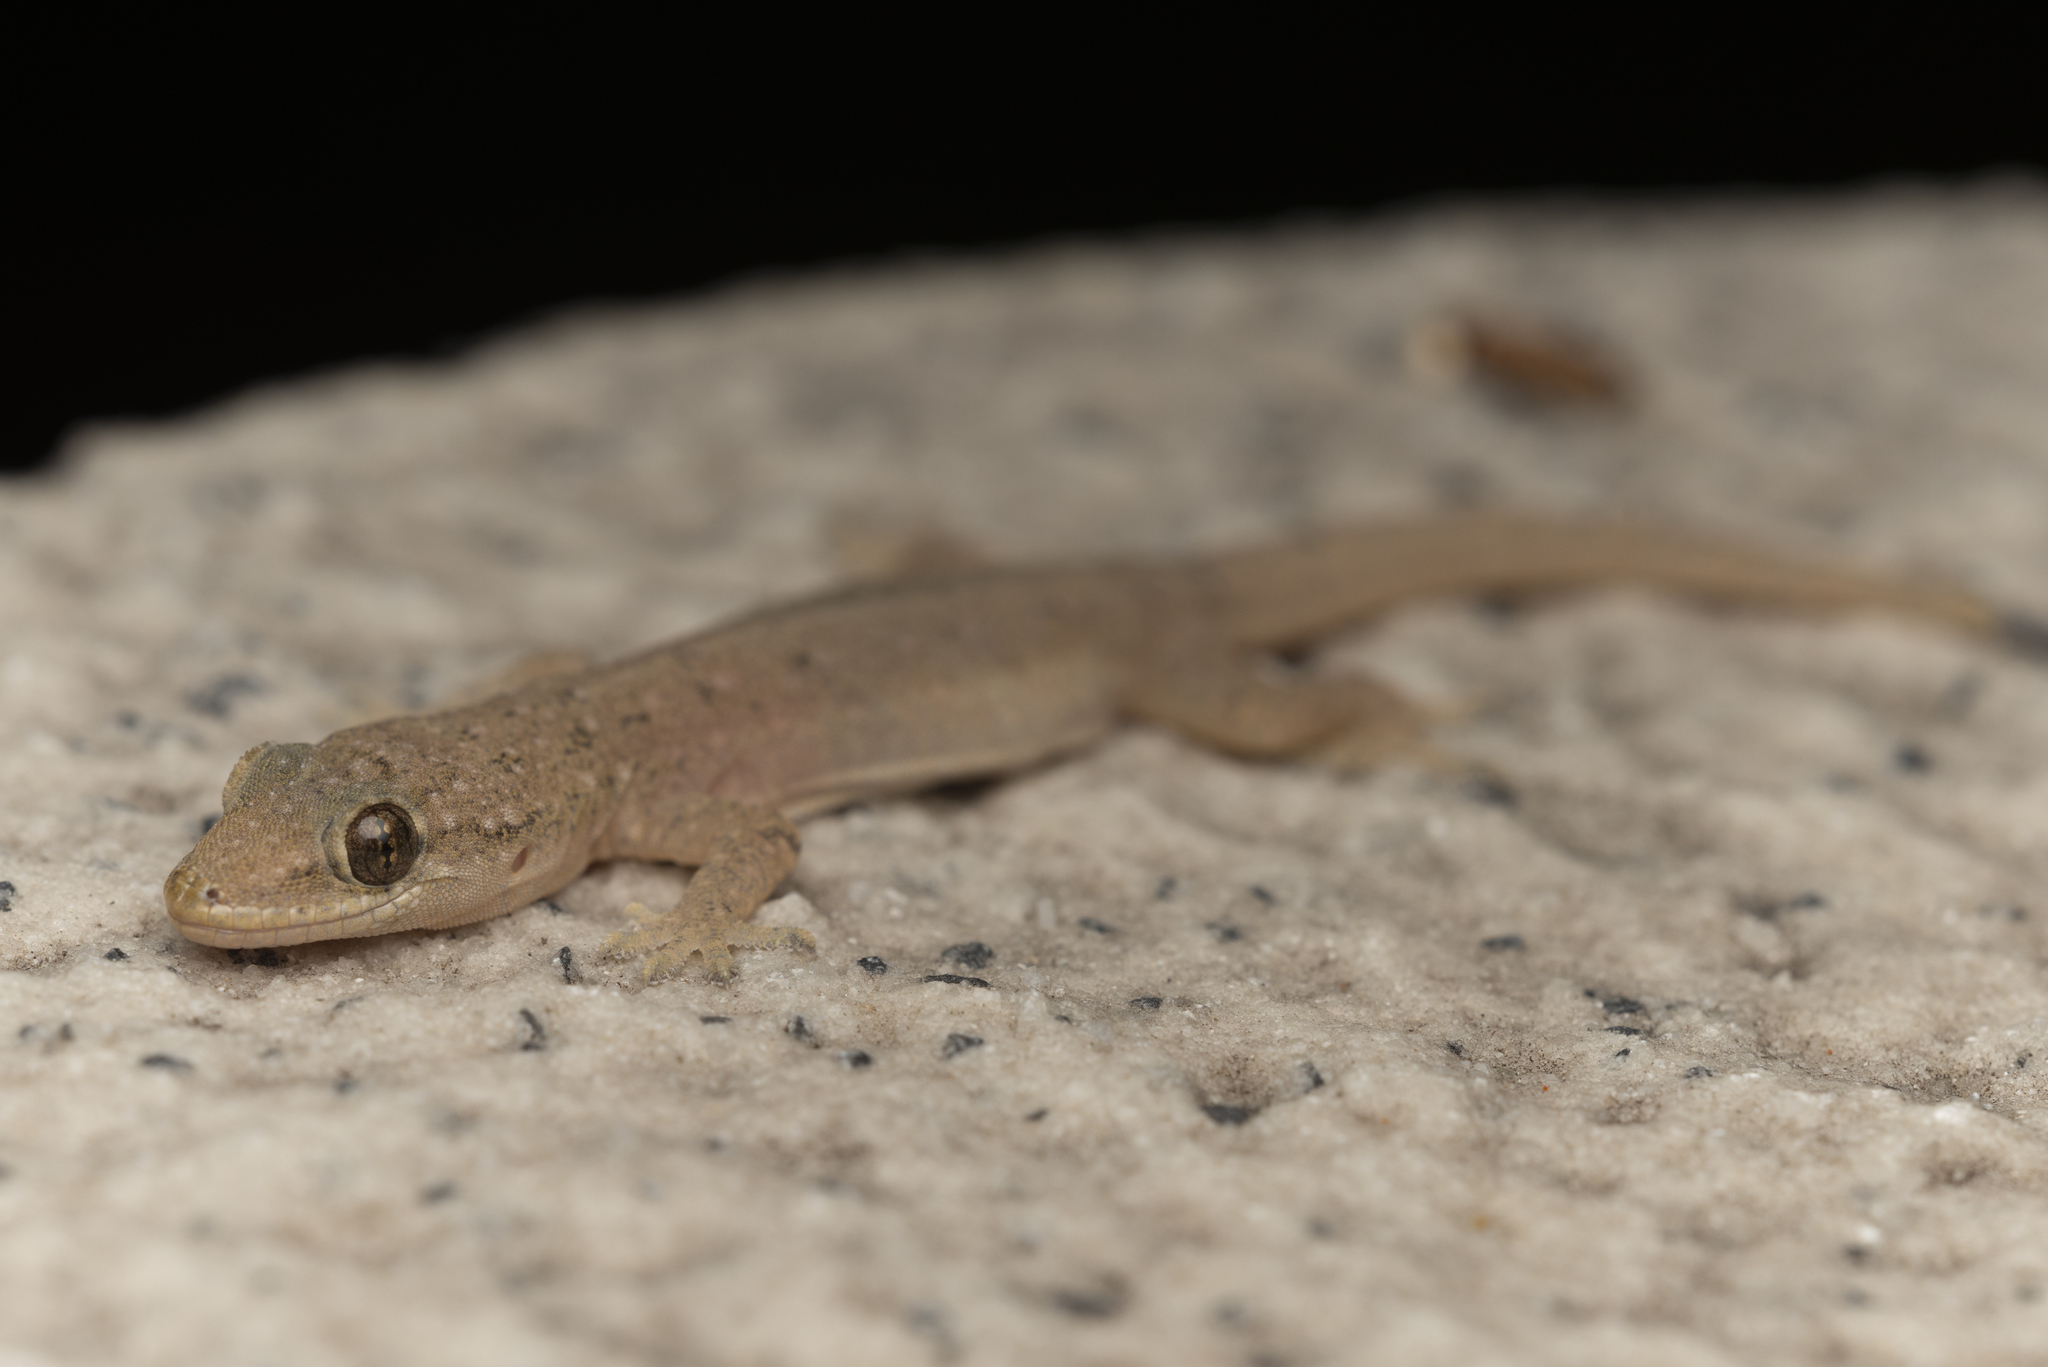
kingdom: Animalia
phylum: Chordata
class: Squamata
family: Gekkonidae
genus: Hemidactylus
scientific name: Hemidactylus bowringii
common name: Oriental leaf-toed gecko
